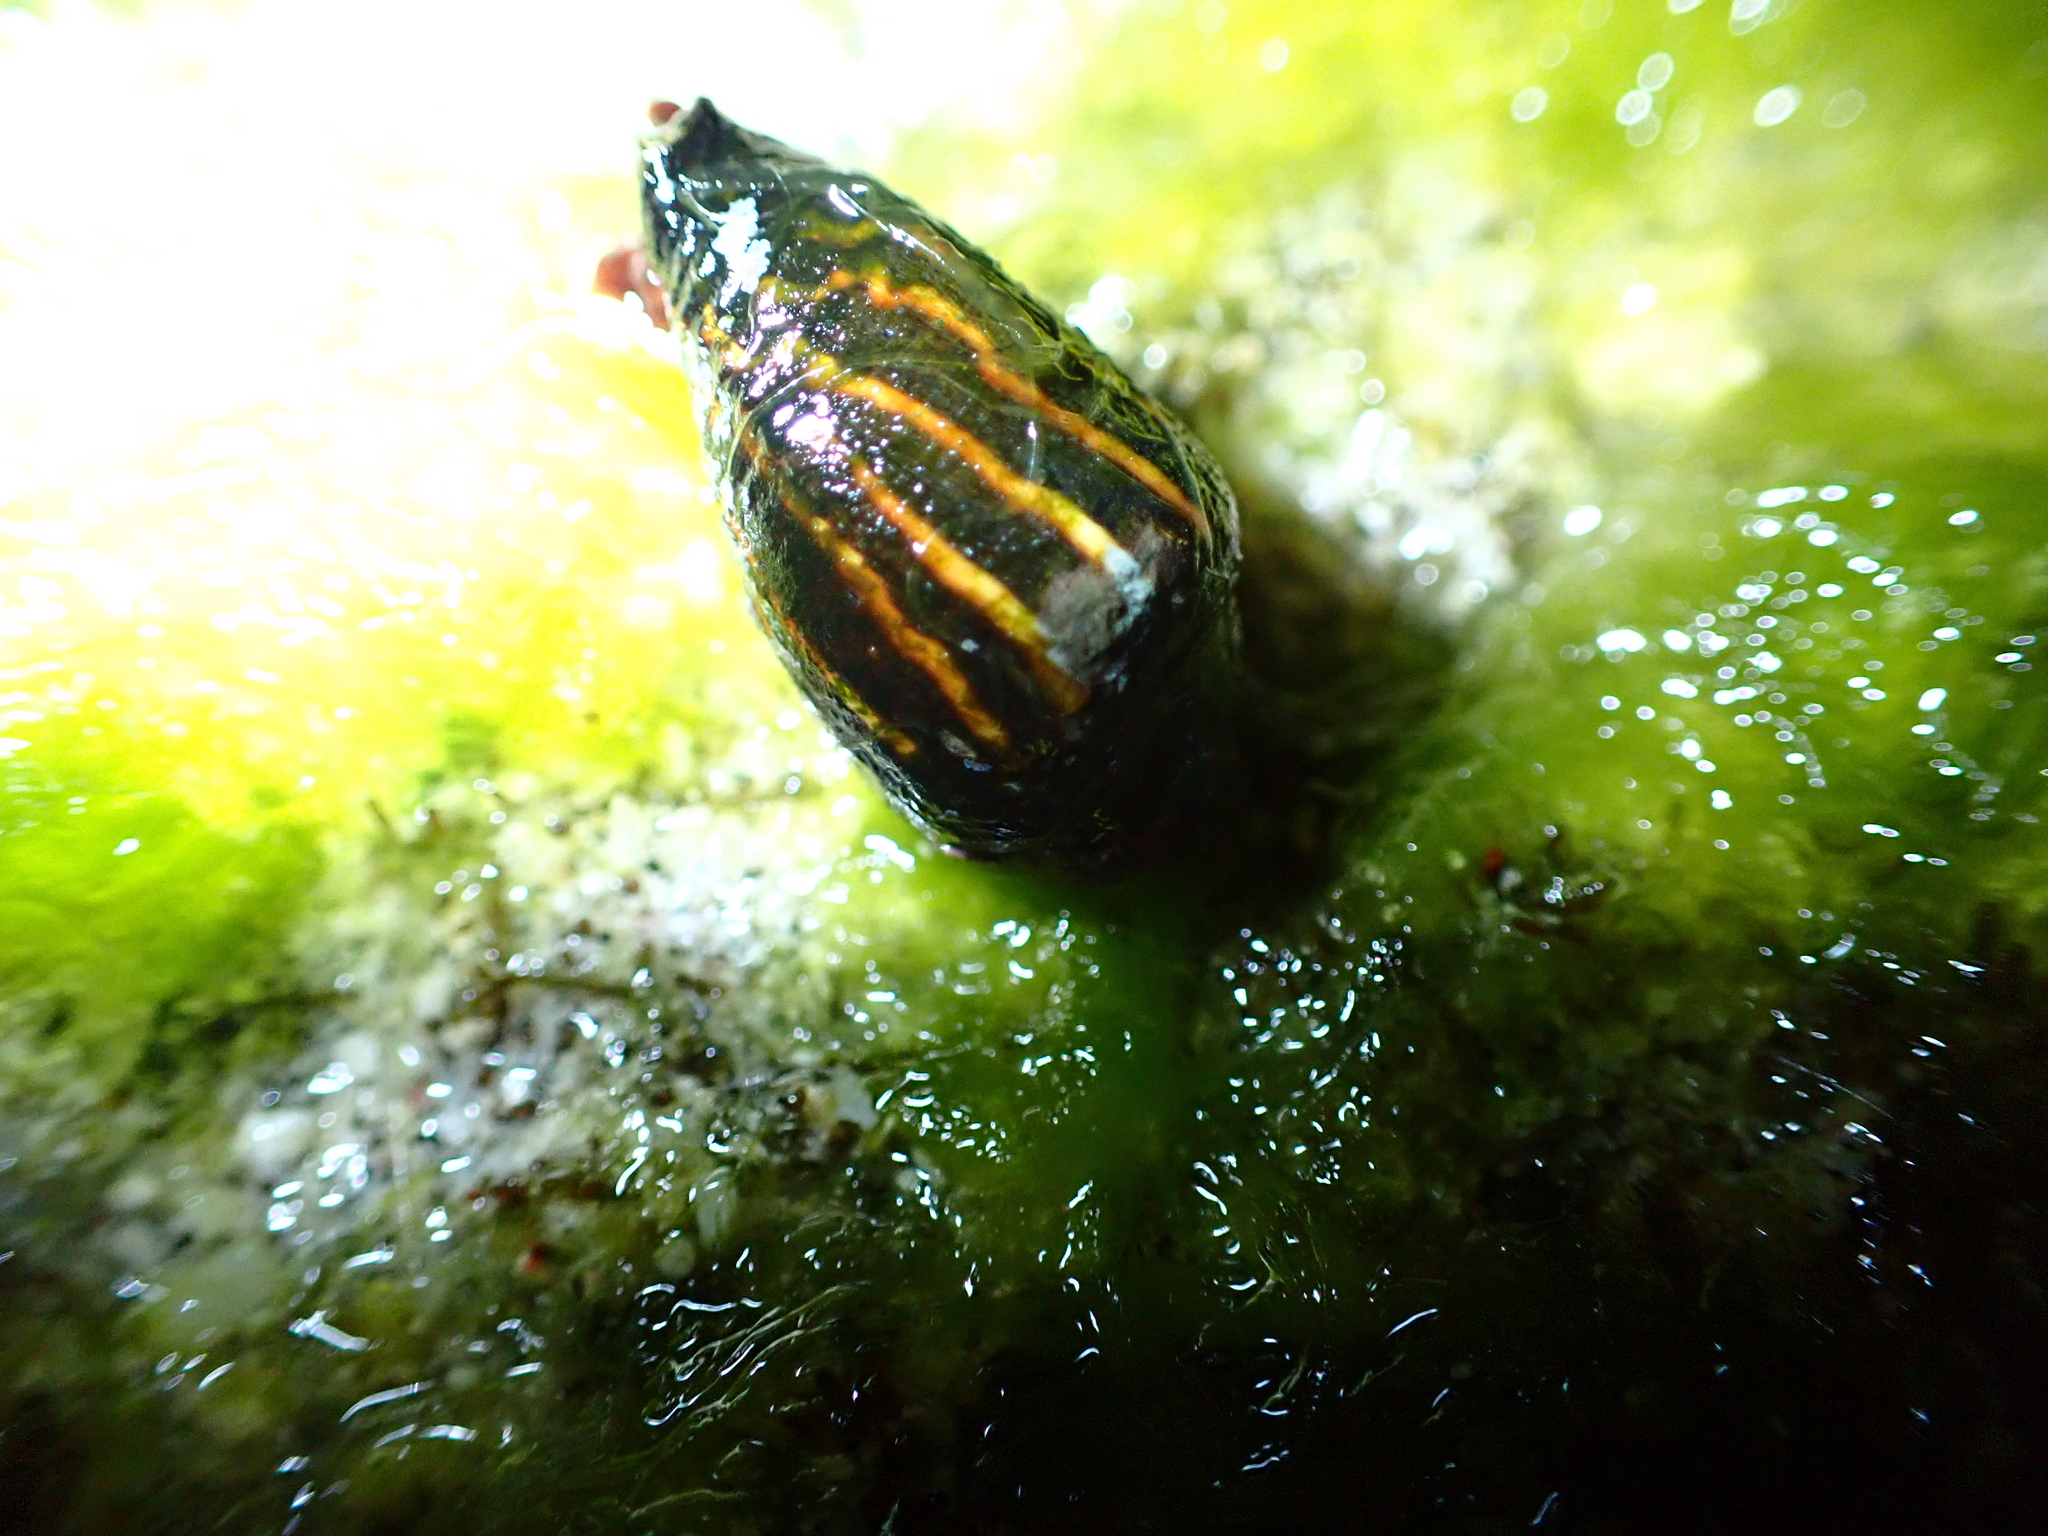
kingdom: Animalia
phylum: Mollusca
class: Gastropoda
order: Neogastropoda
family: Mitridae
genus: Strigatella
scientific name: Strigatella paupercula
